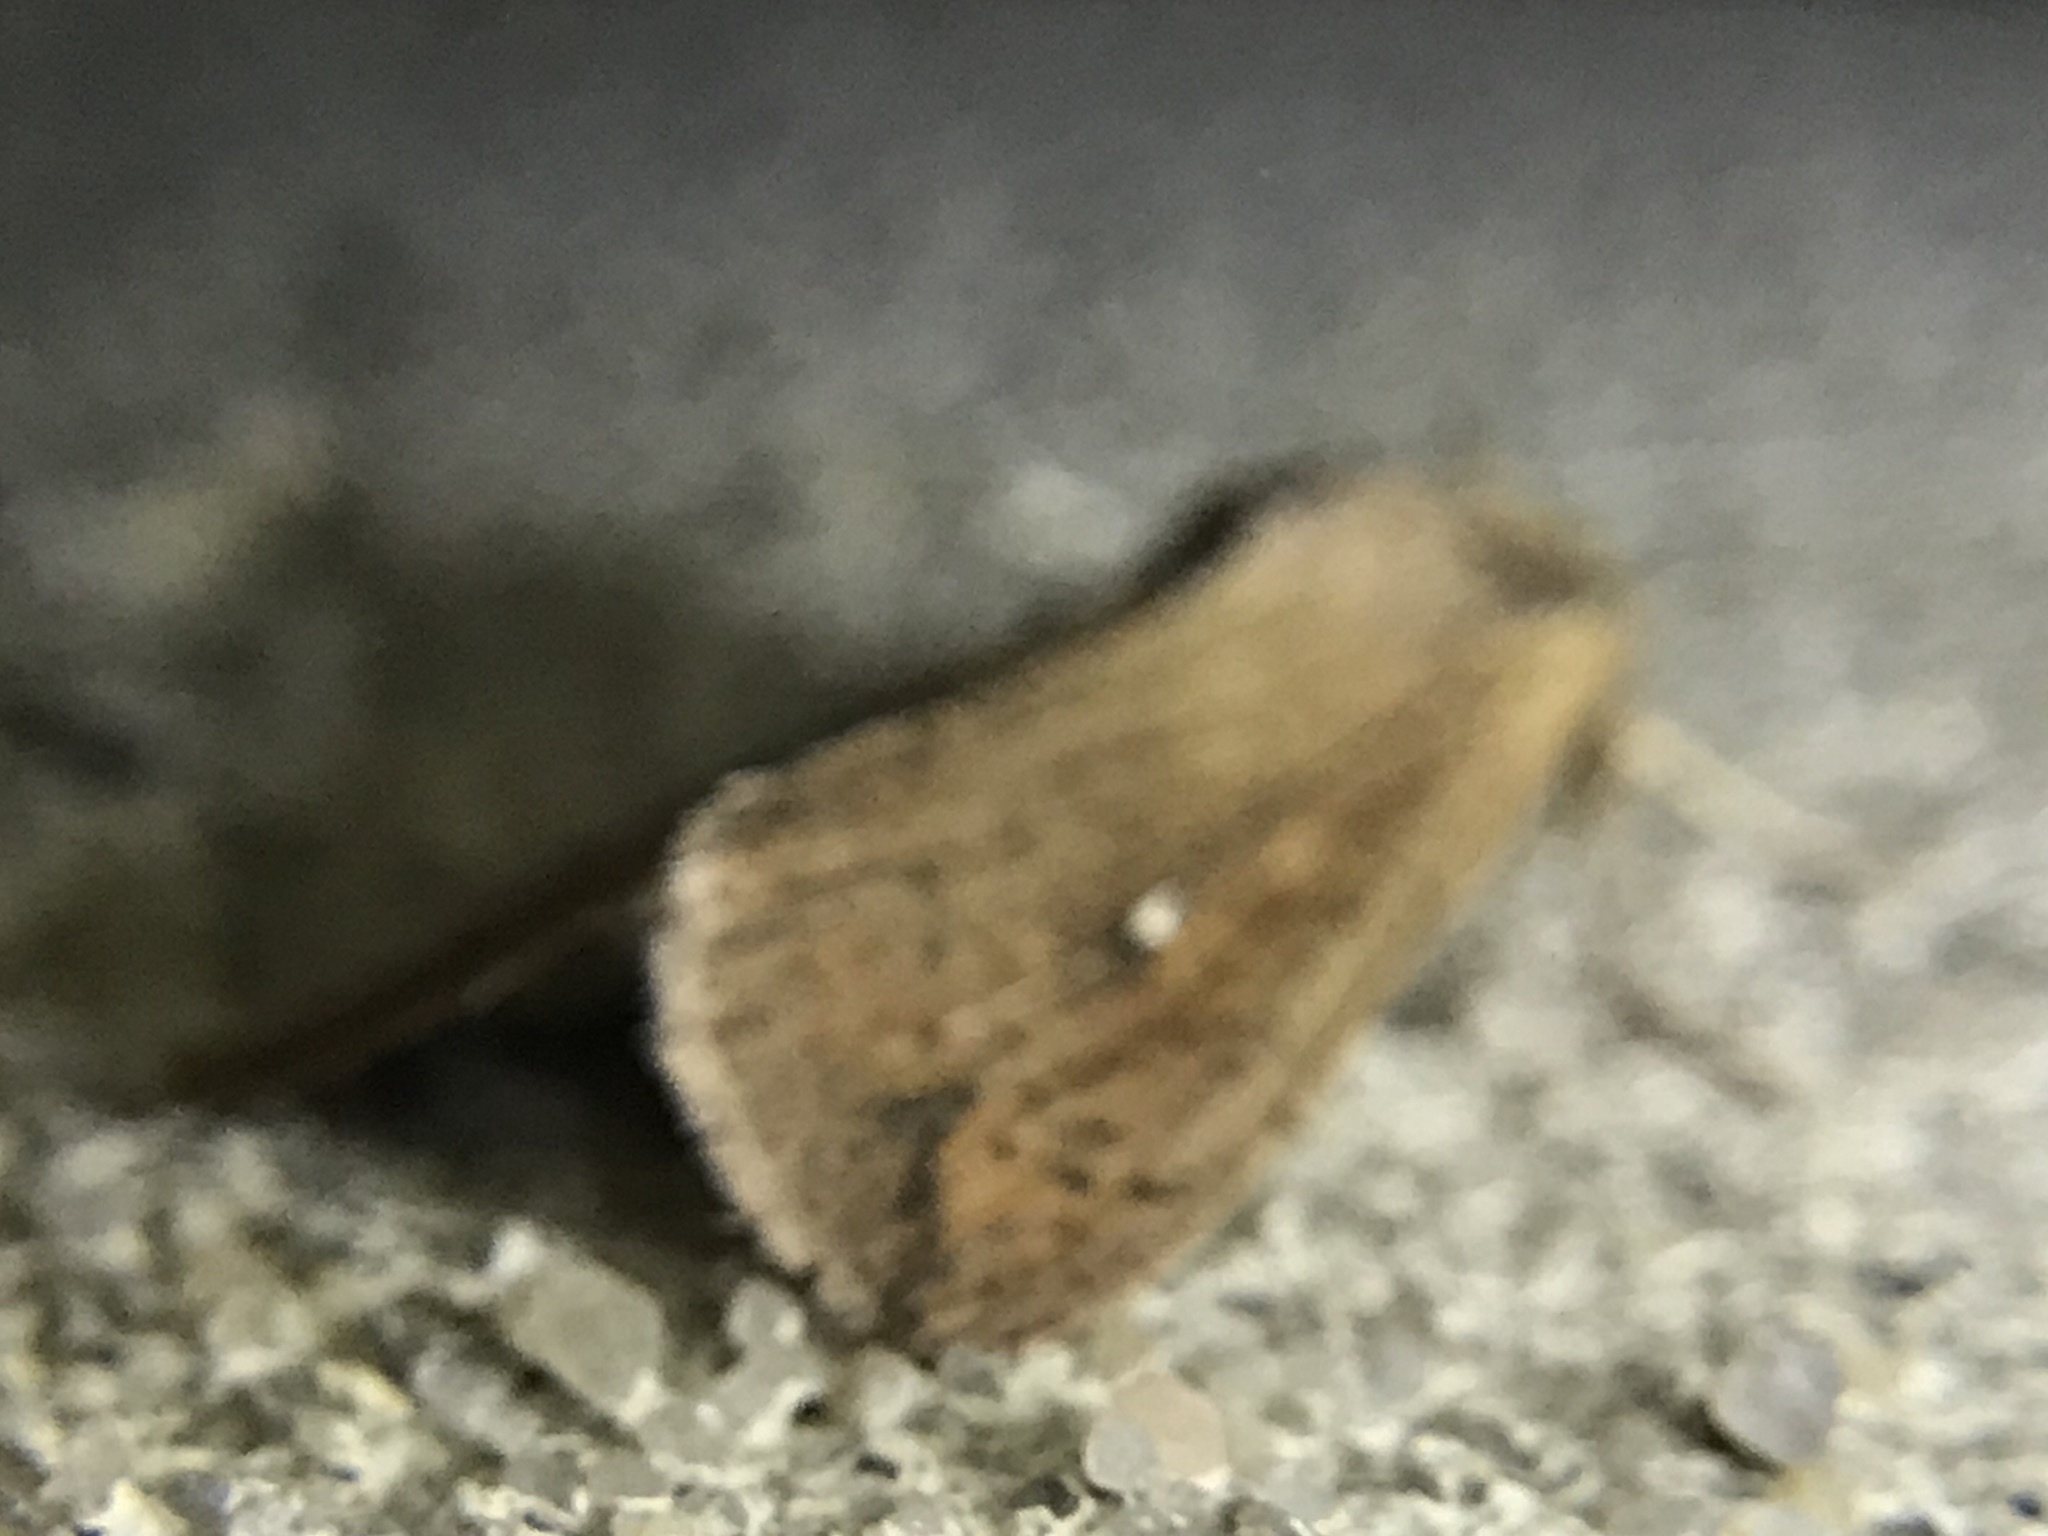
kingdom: Animalia
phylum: Arthropoda
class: Insecta
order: Lepidoptera
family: Noctuidae
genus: Mythimna
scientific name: Mythimna unipuncta
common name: White-speck
